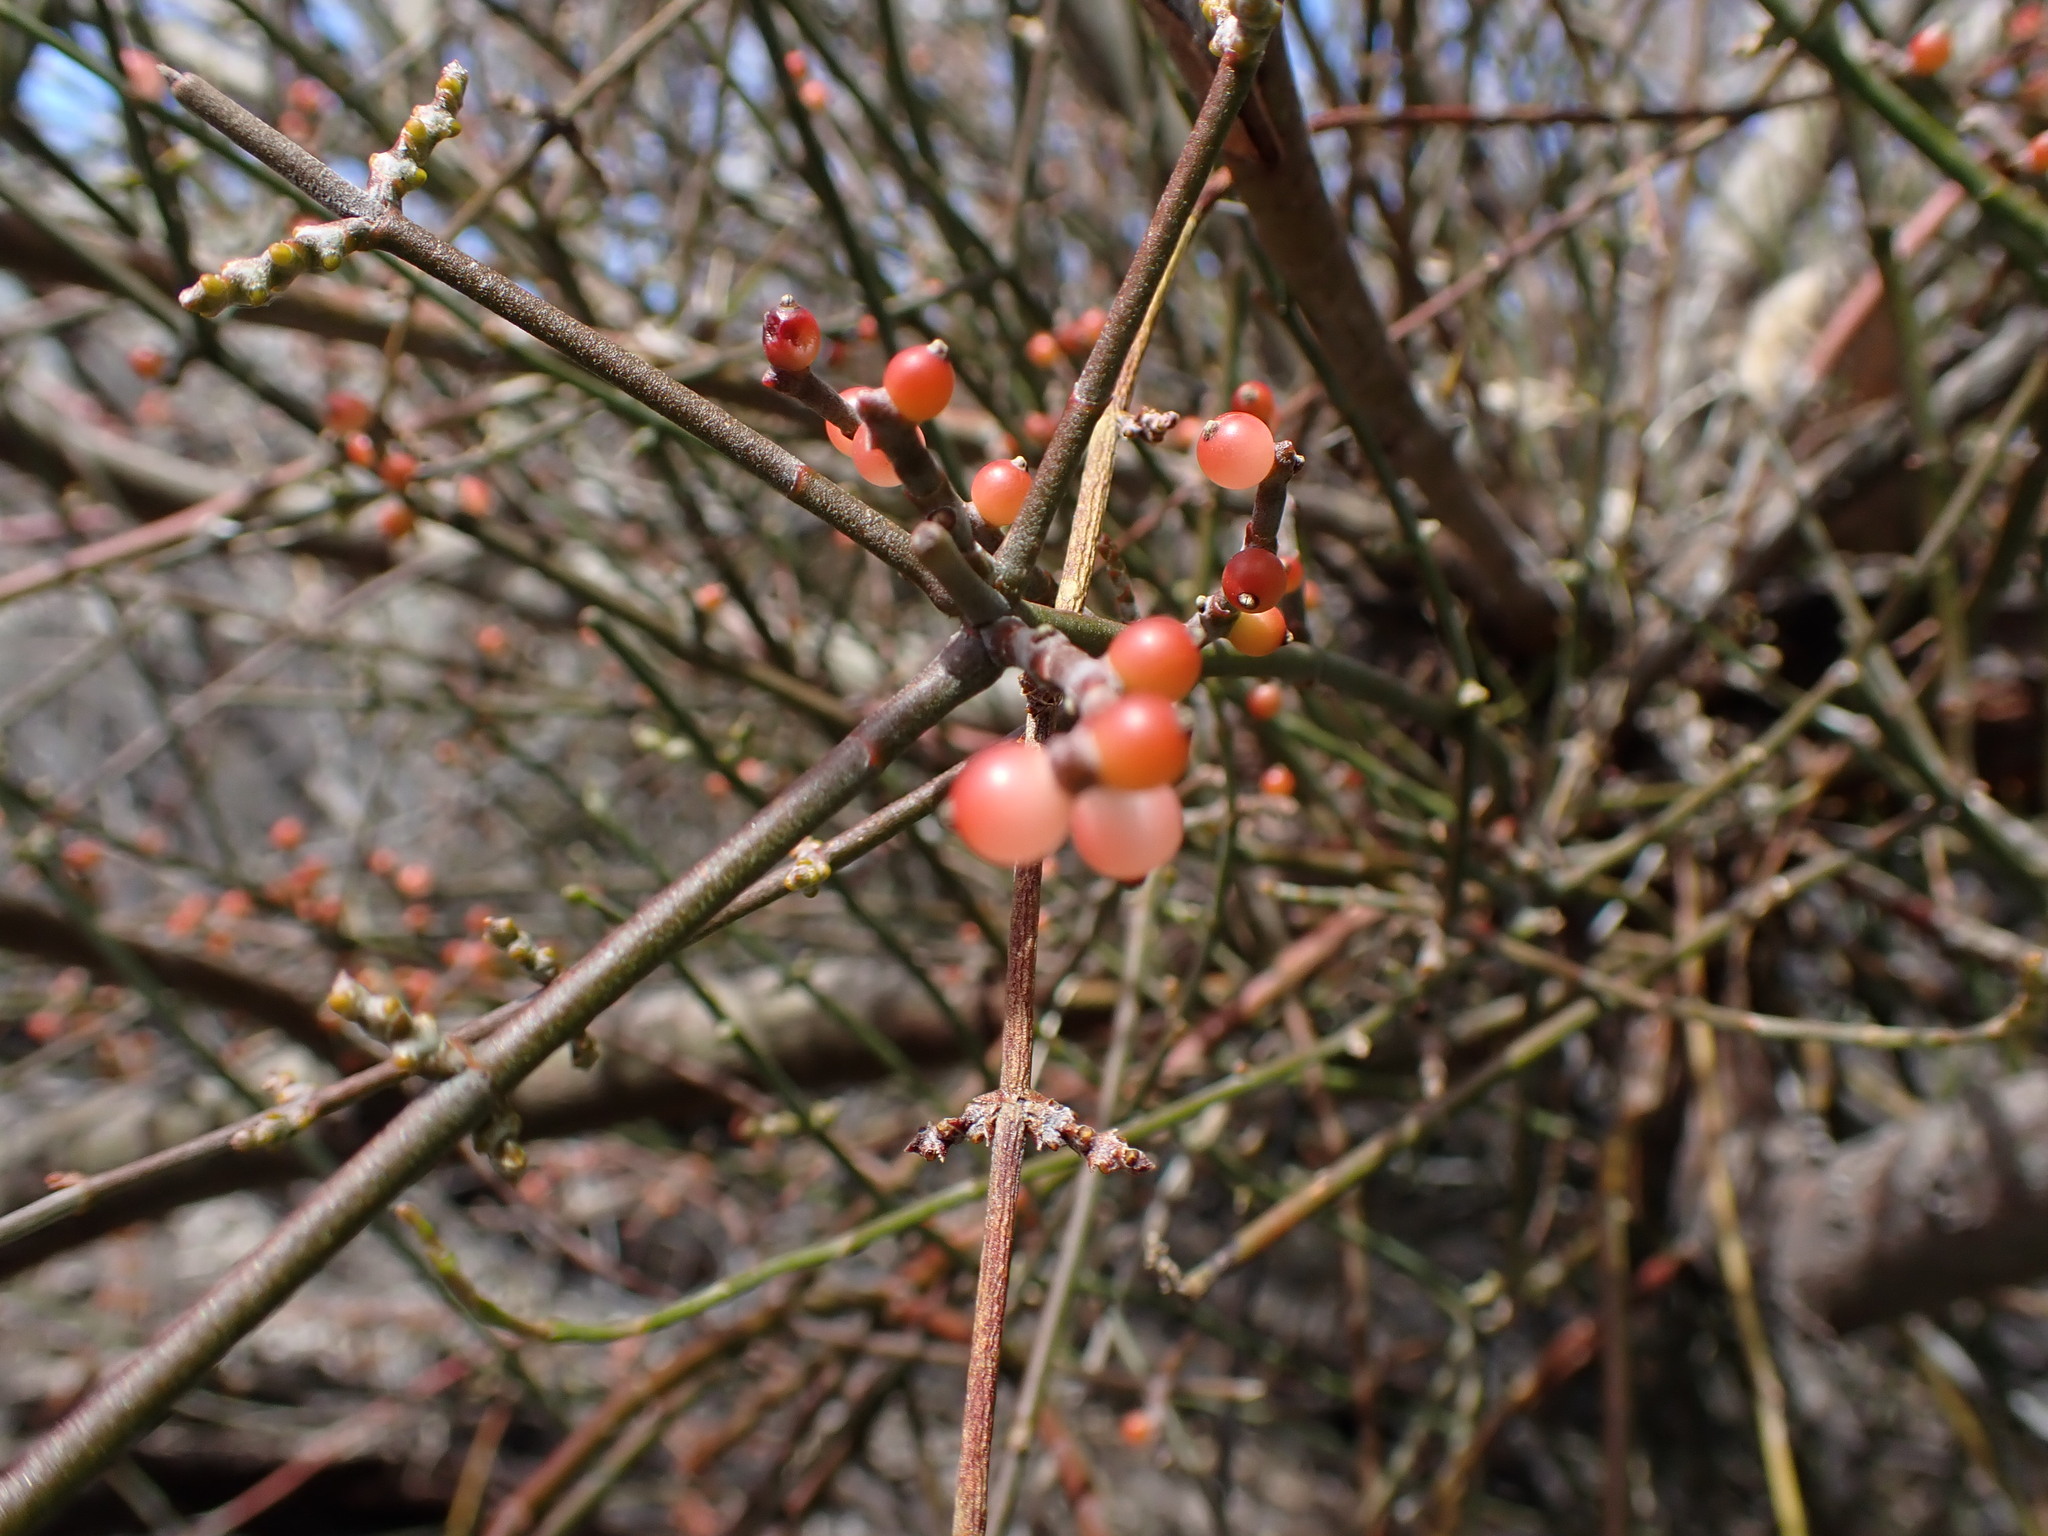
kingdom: Plantae
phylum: Tracheophyta
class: Magnoliopsida
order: Santalales
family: Viscaceae
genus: Phoradendron
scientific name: Phoradendron californicum
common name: Acacia mistletoe
